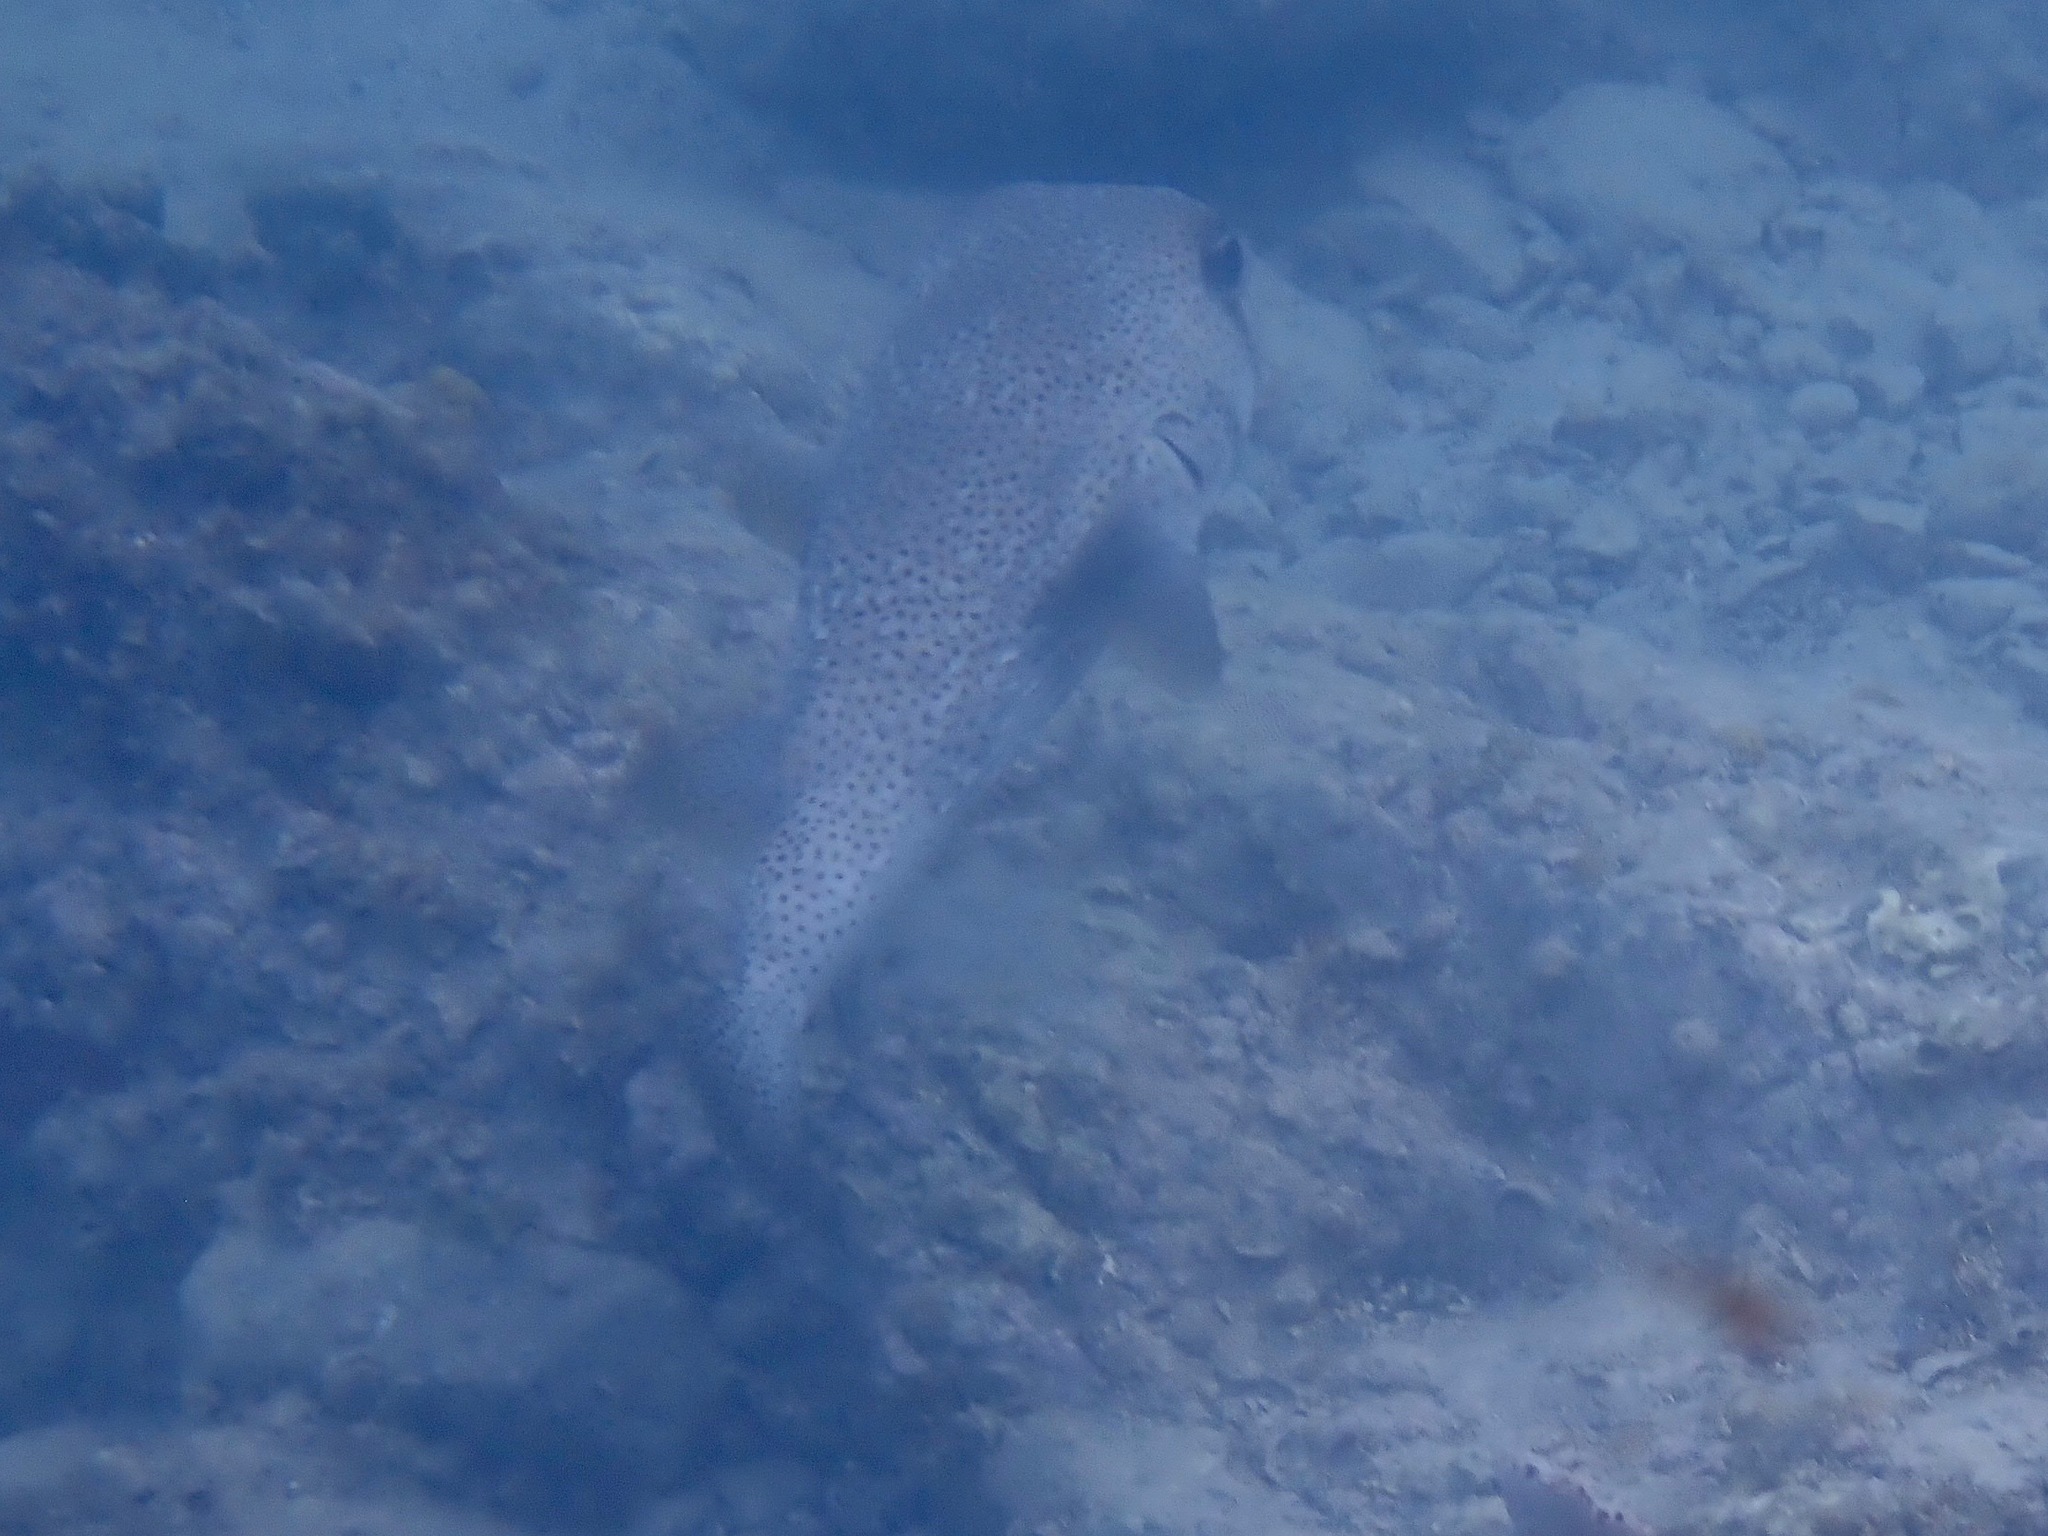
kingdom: Animalia
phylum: Chordata
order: Tetraodontiformes
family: Diodontidae
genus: Diodon
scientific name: Diodon hystrix
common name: Giant porcupinefish
